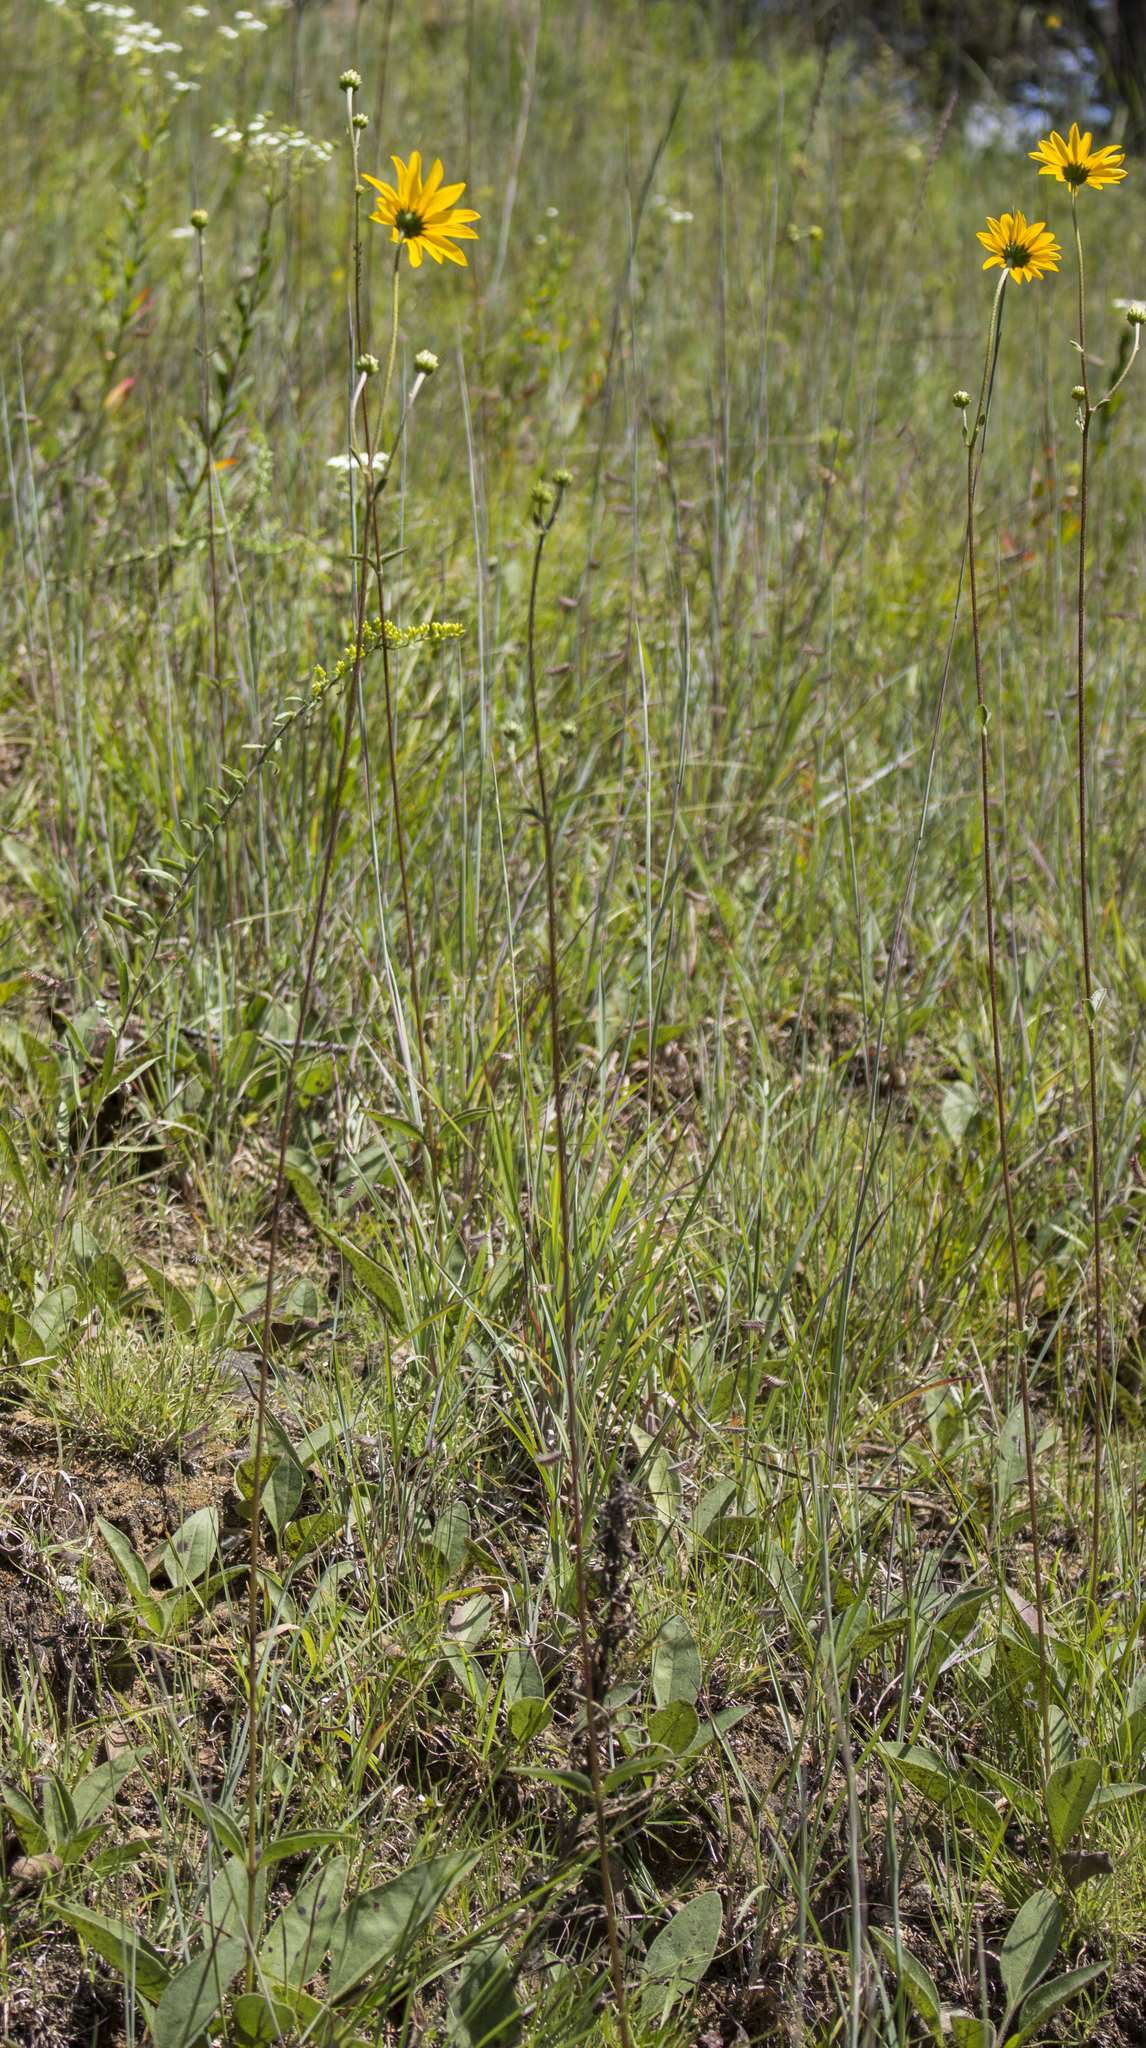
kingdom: Plantae
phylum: Tracheophyta
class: Magnoliopsida
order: Asterales
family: Asteraceae
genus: Helianthus
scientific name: Helianthus occidentalis
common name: Western sunflower
